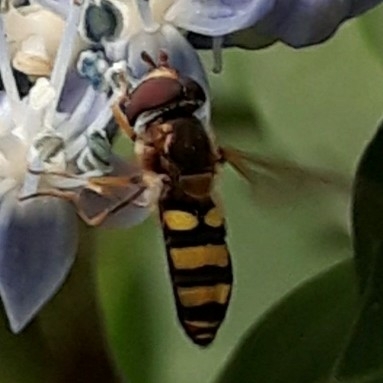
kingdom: Animalia
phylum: Arthropoda
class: Insecta
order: Diptera
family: Syrphidae
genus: Eupeodes
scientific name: Eupeodes
